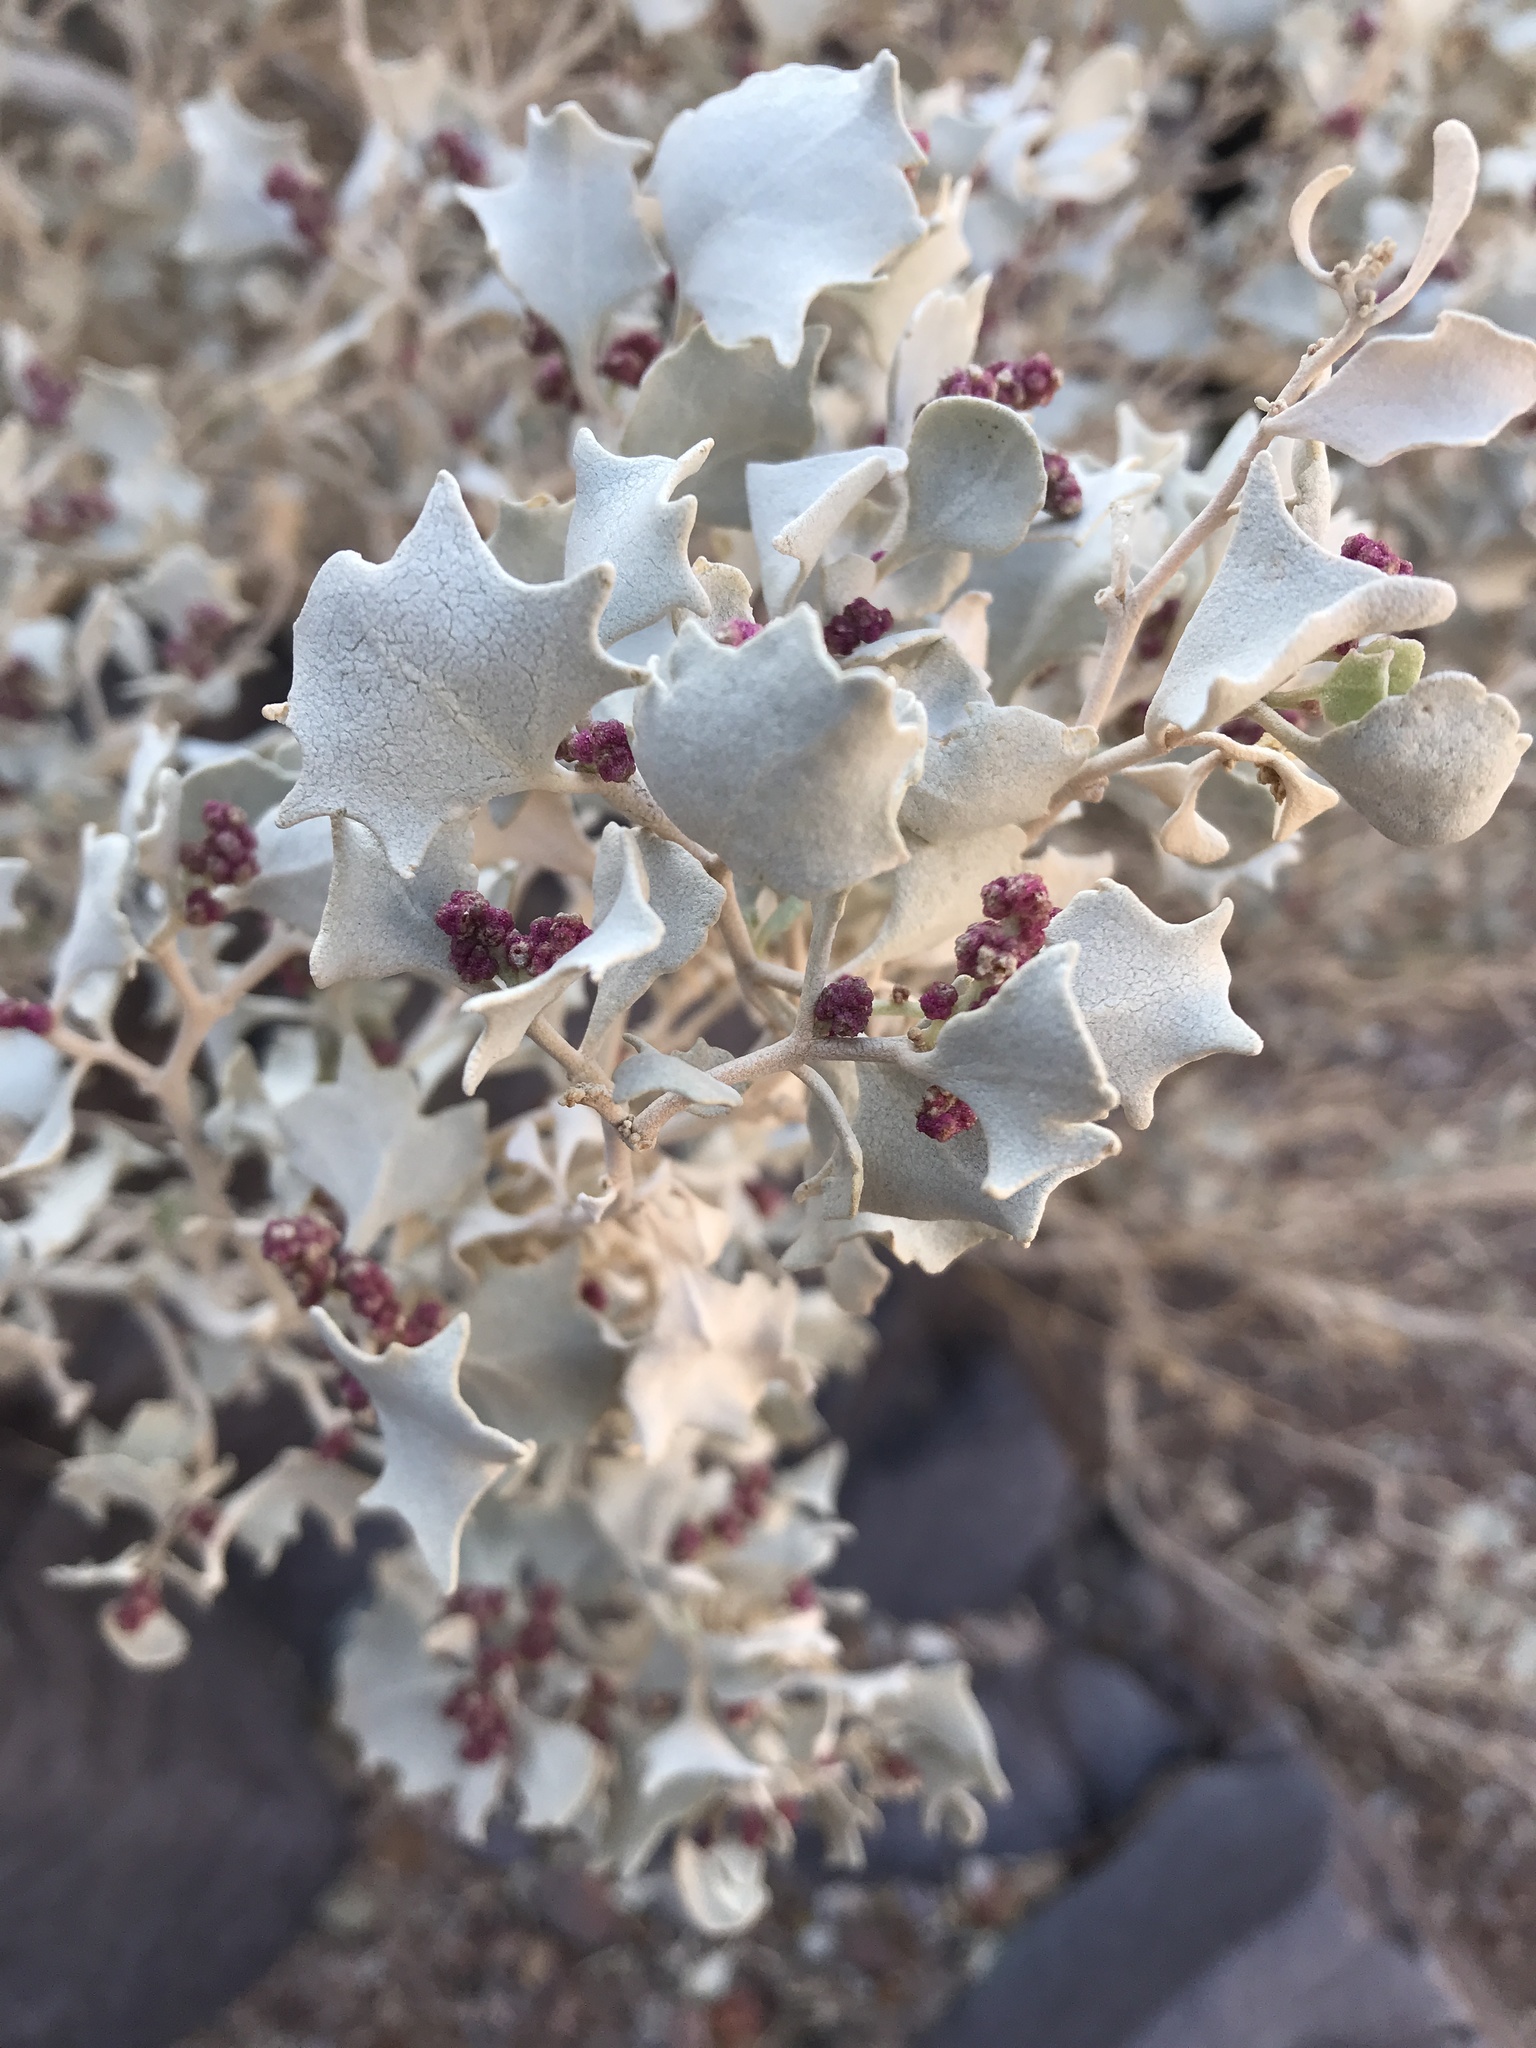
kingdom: Plantae
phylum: Tracheophyta
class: Magnoliopsida
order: Caryophyllales
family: Amaranthaceae
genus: Atriplex
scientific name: Atriplex hymenelytra
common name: Desert-holly
